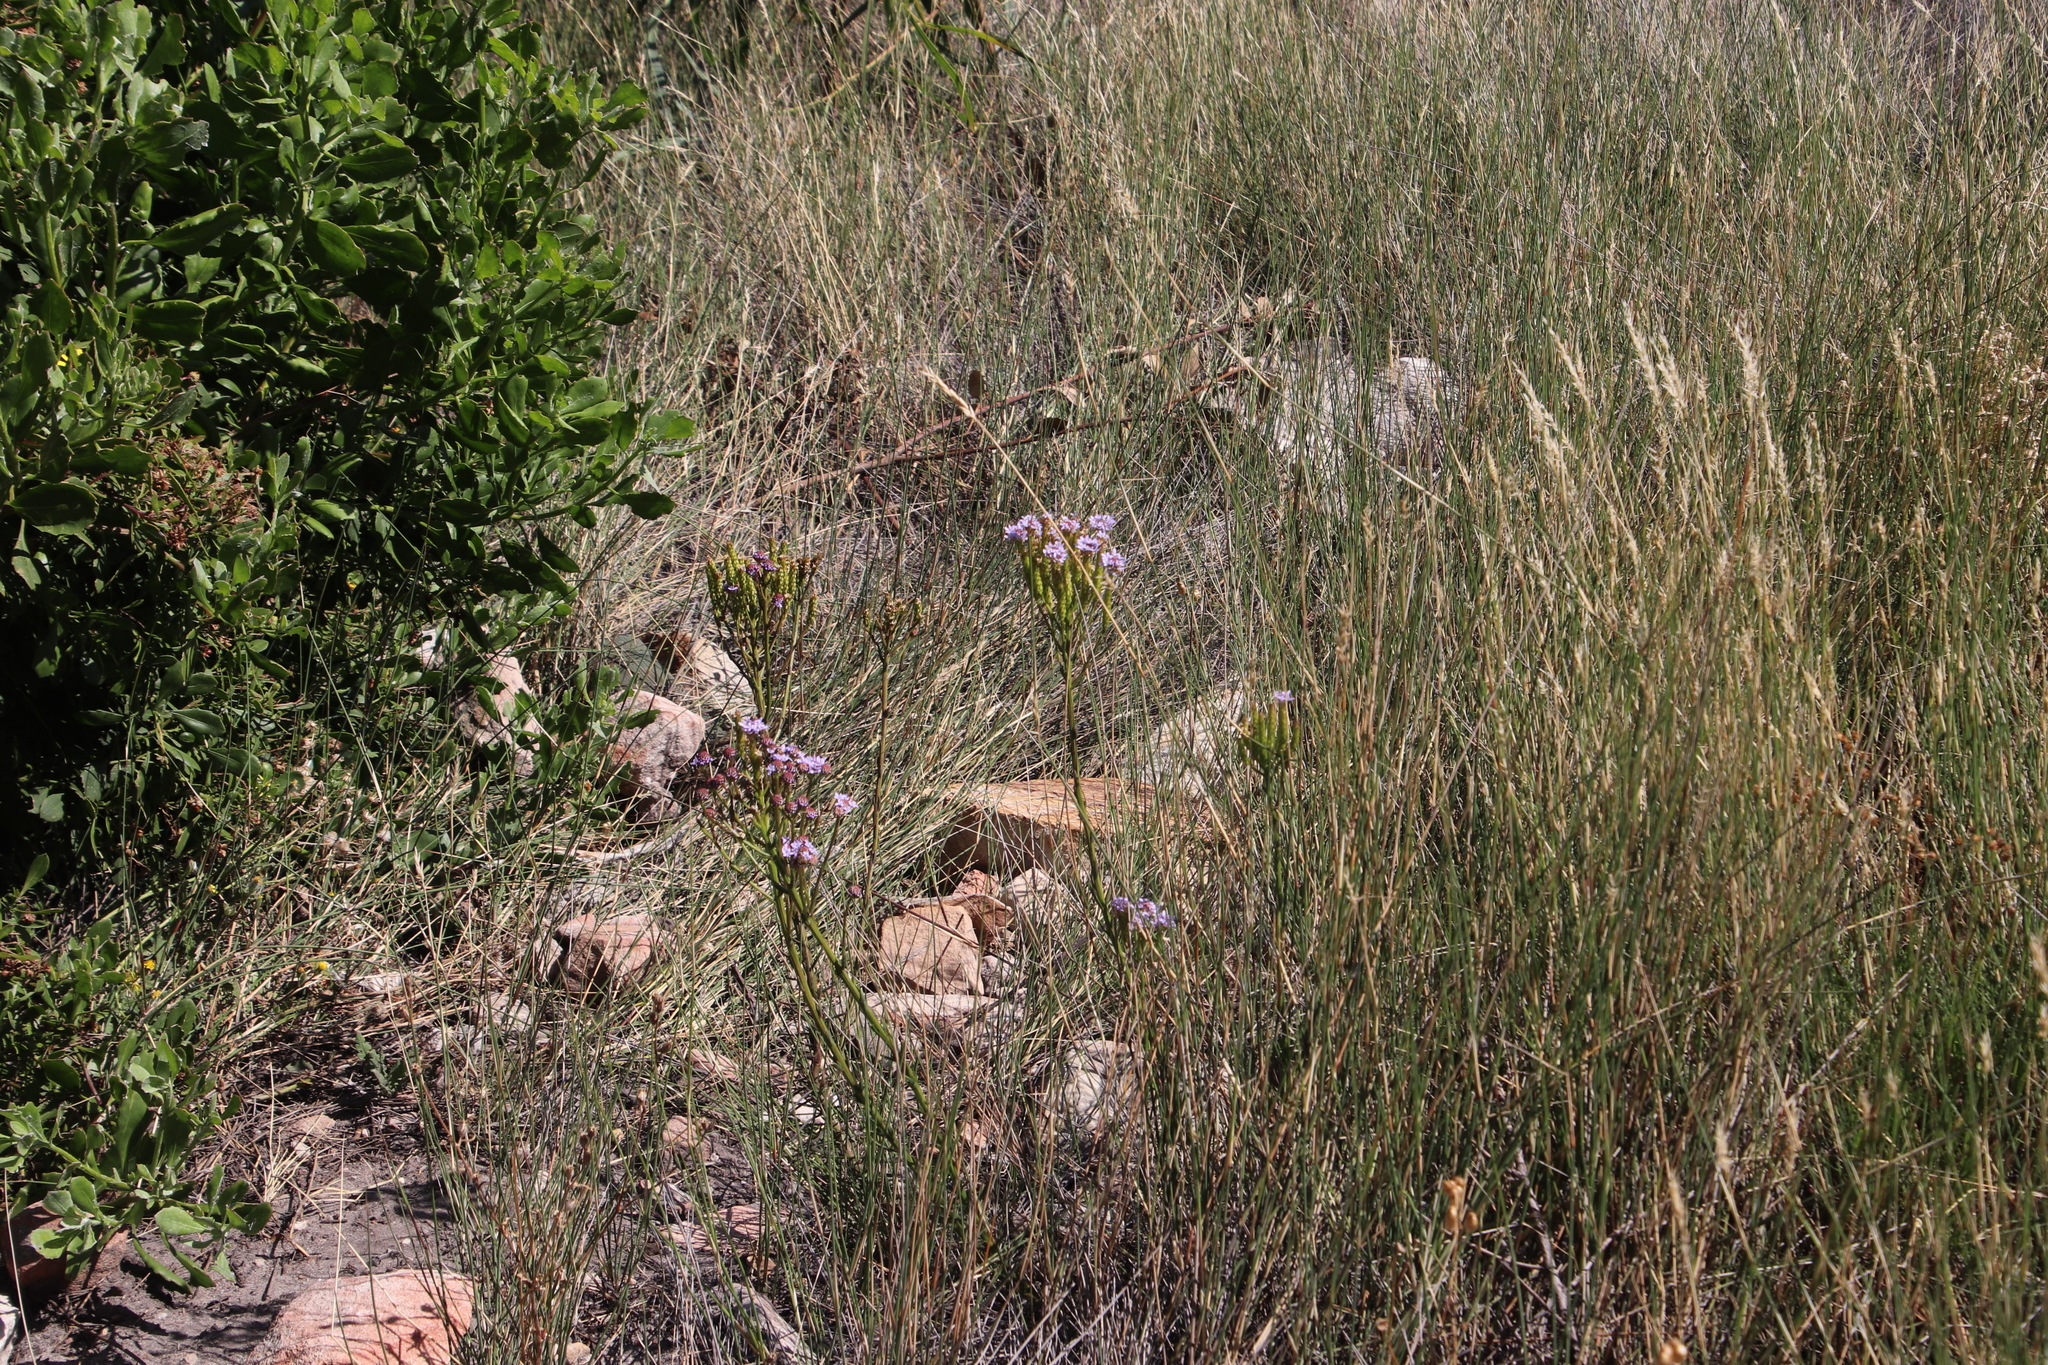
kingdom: Plantae
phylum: Tracheophyta
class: Magnoliopsida
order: Lamiales
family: Scrophulariaceae
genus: Pseudoselago
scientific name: Pseudoselago spuria
